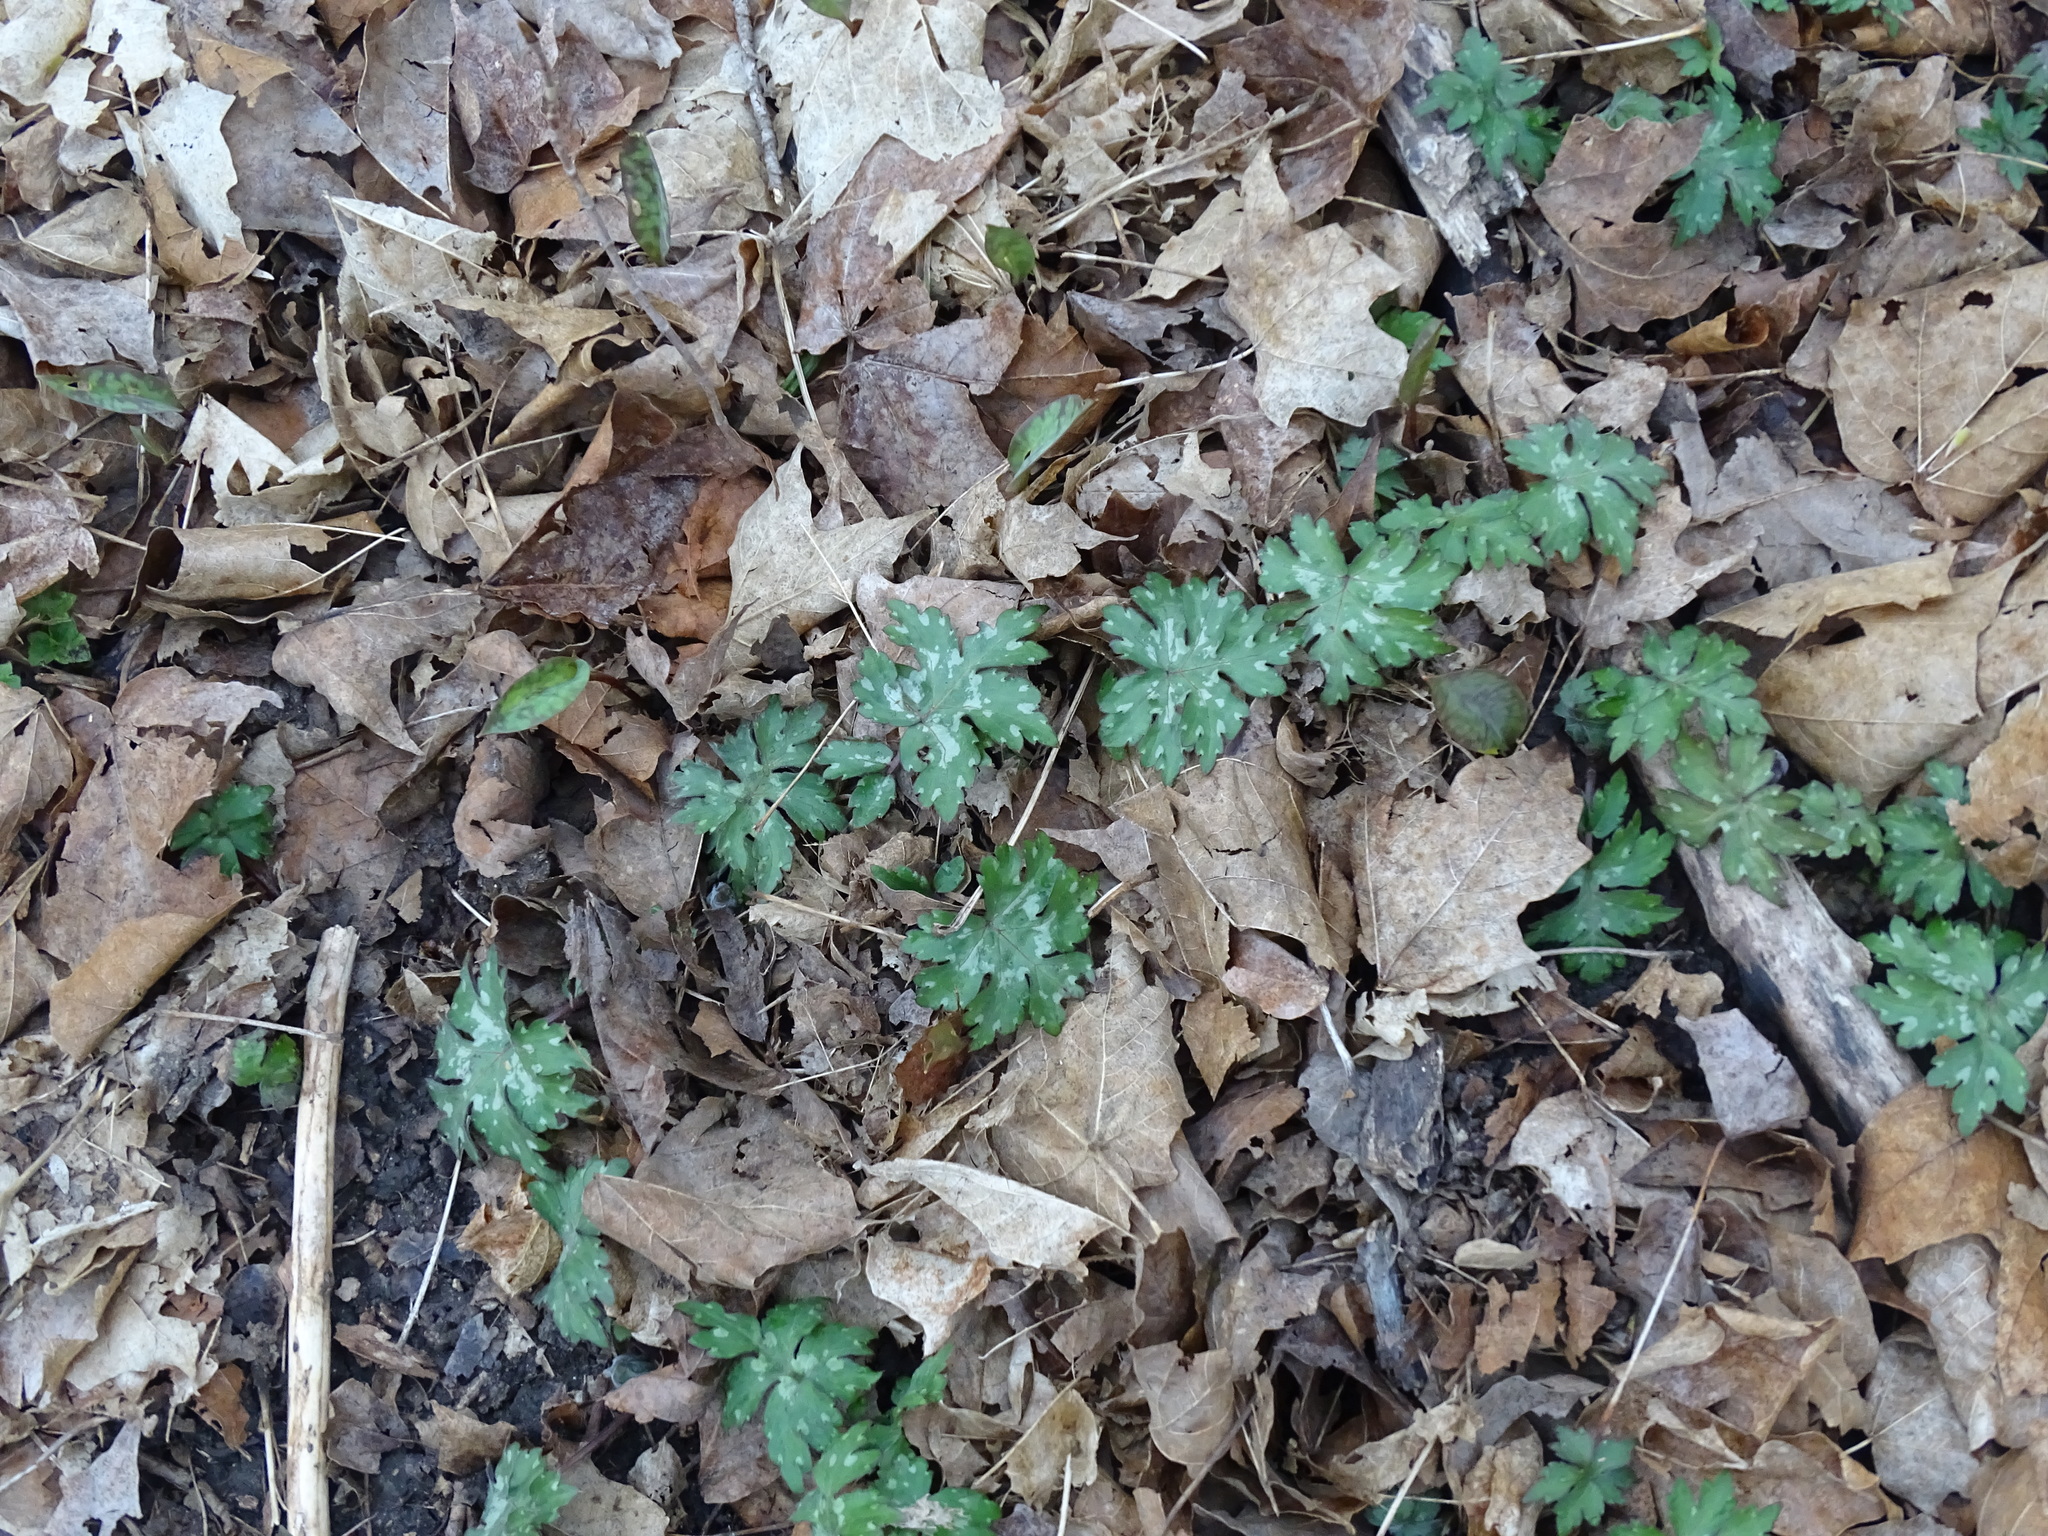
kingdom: Plantae
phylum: Tracheophyta
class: Magnoliopsida
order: Boraginales
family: Hydrophyllaceae
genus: Hydrophyllum
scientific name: Hydrophyllum canadense
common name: Canada waterleaf
